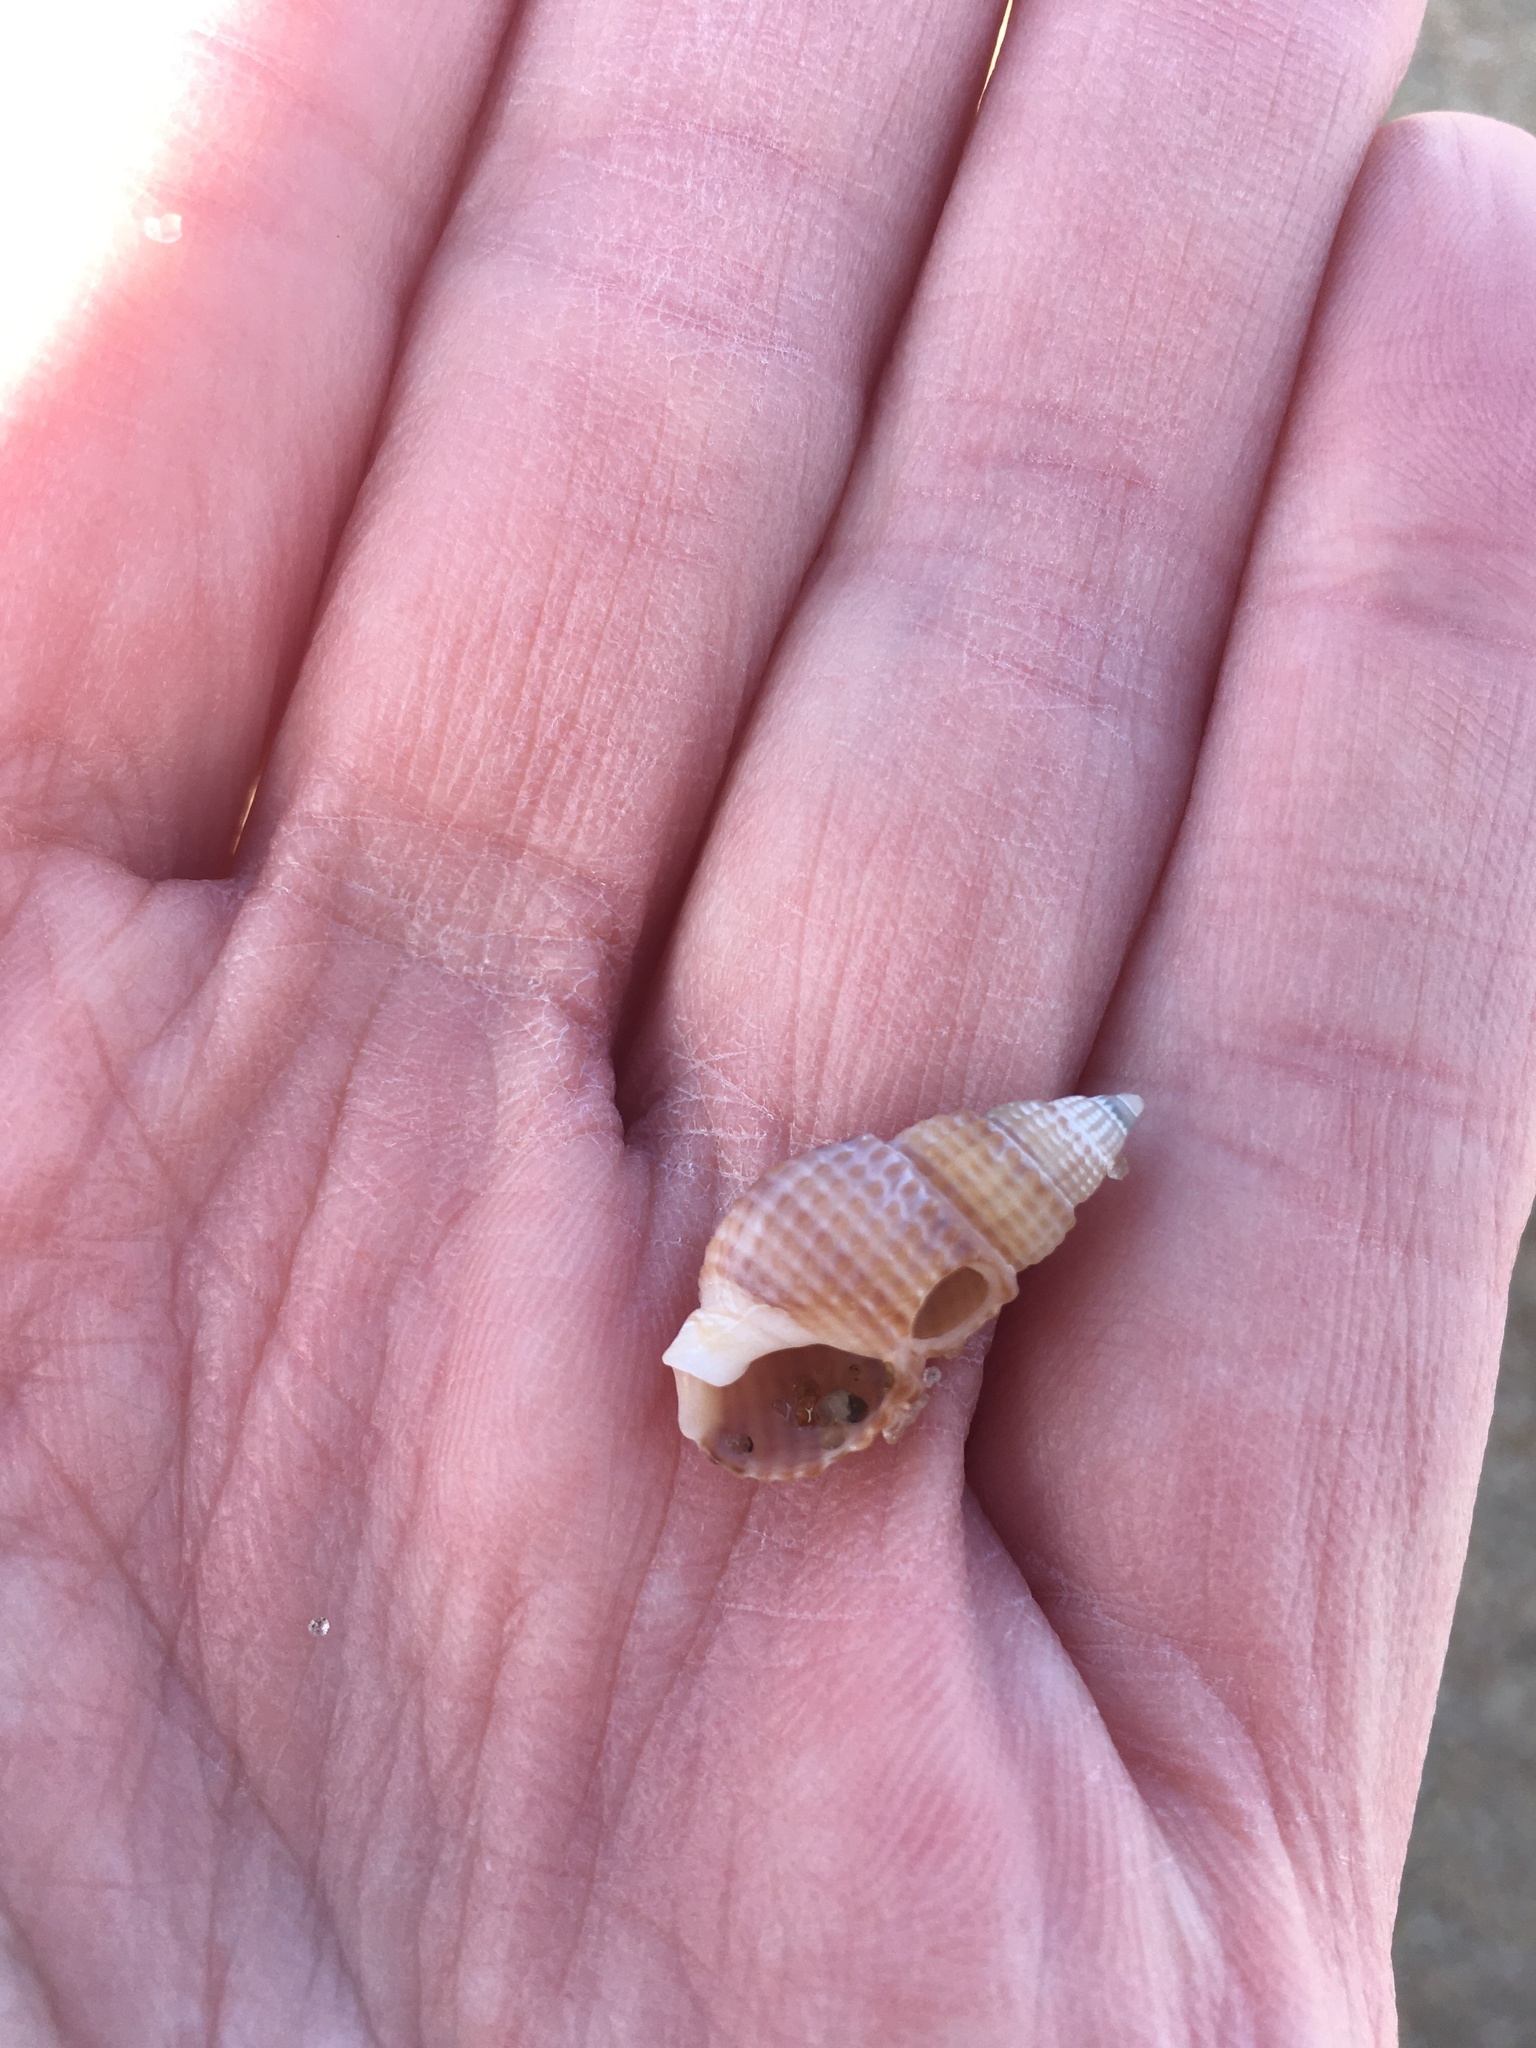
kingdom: Animalia
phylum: Mollusca
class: Gastropoda
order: Neogastropoda
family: Nassariidae
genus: Ilyanassa
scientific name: Ilyanassa trivittata
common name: Three-line mudsnail
